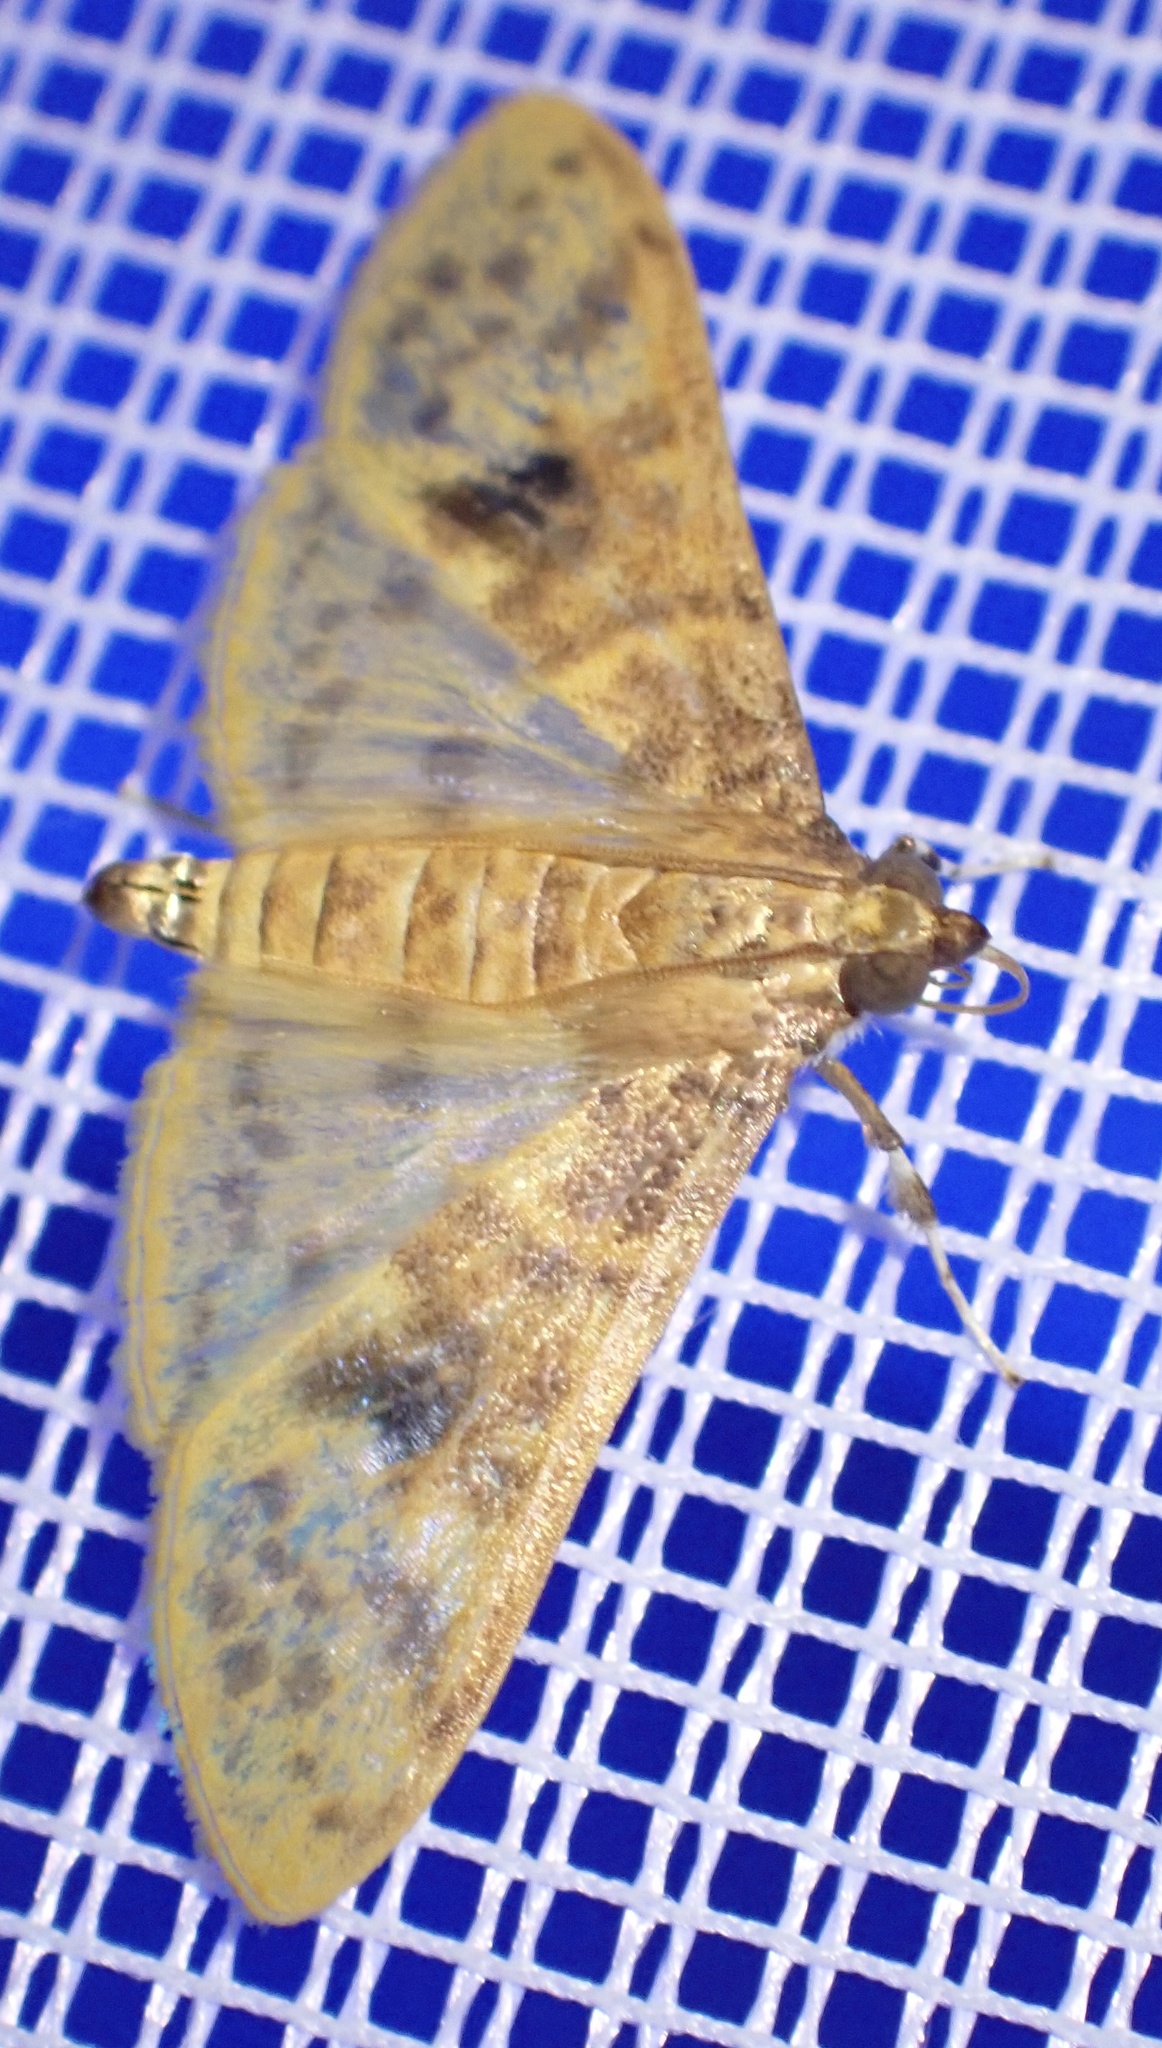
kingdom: Animalia
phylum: Arthropoda
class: Insecta
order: Lepidoptera
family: Crambidae
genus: Ghesquierellana
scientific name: Ghesquierellana hirtusalis
